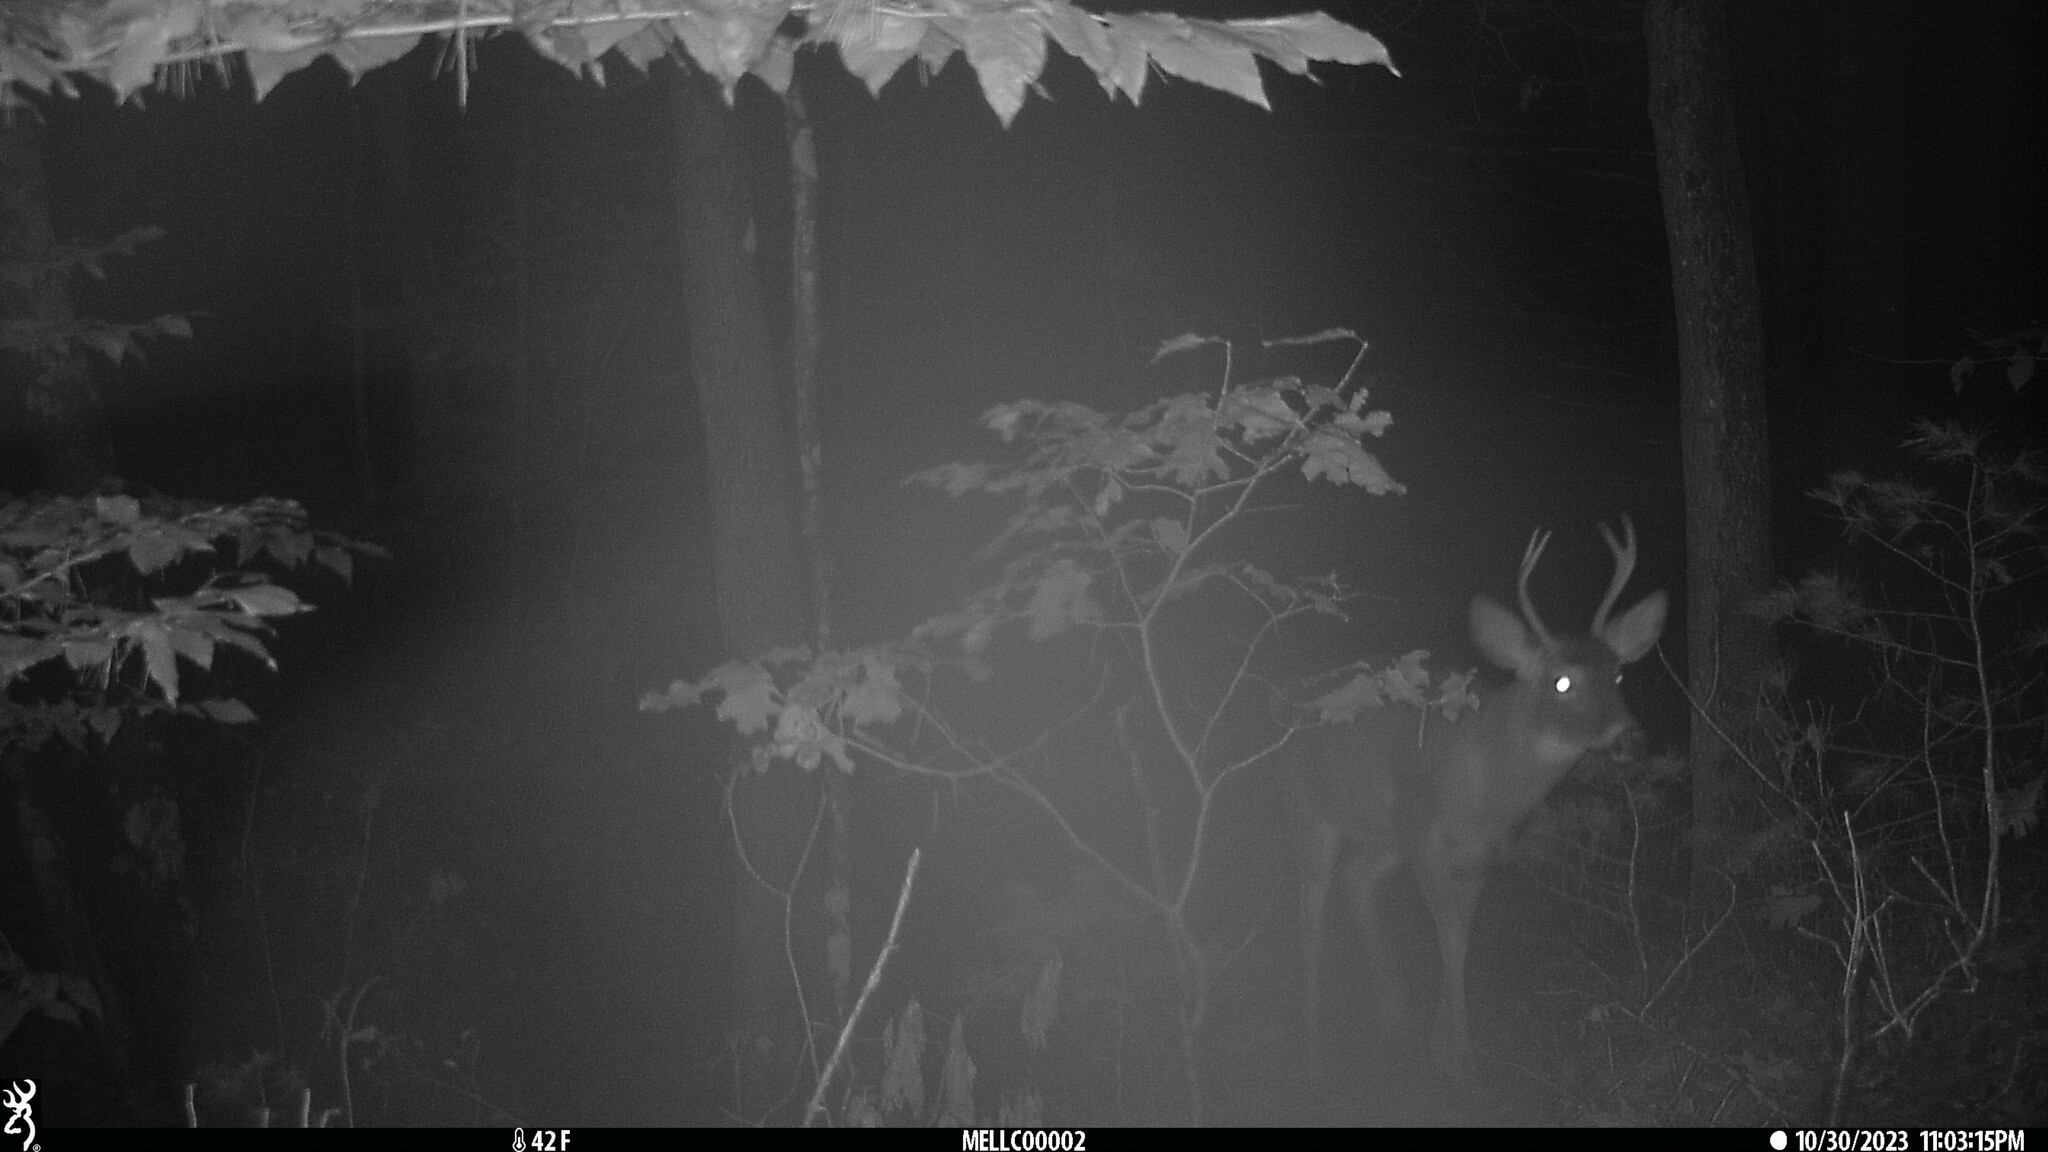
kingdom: Animalia
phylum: Chordata
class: Mammalia
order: Artiodactyla
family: Cervidae
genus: Odocoileus
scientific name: Odocoileus virginianus
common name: White-tailed deer
